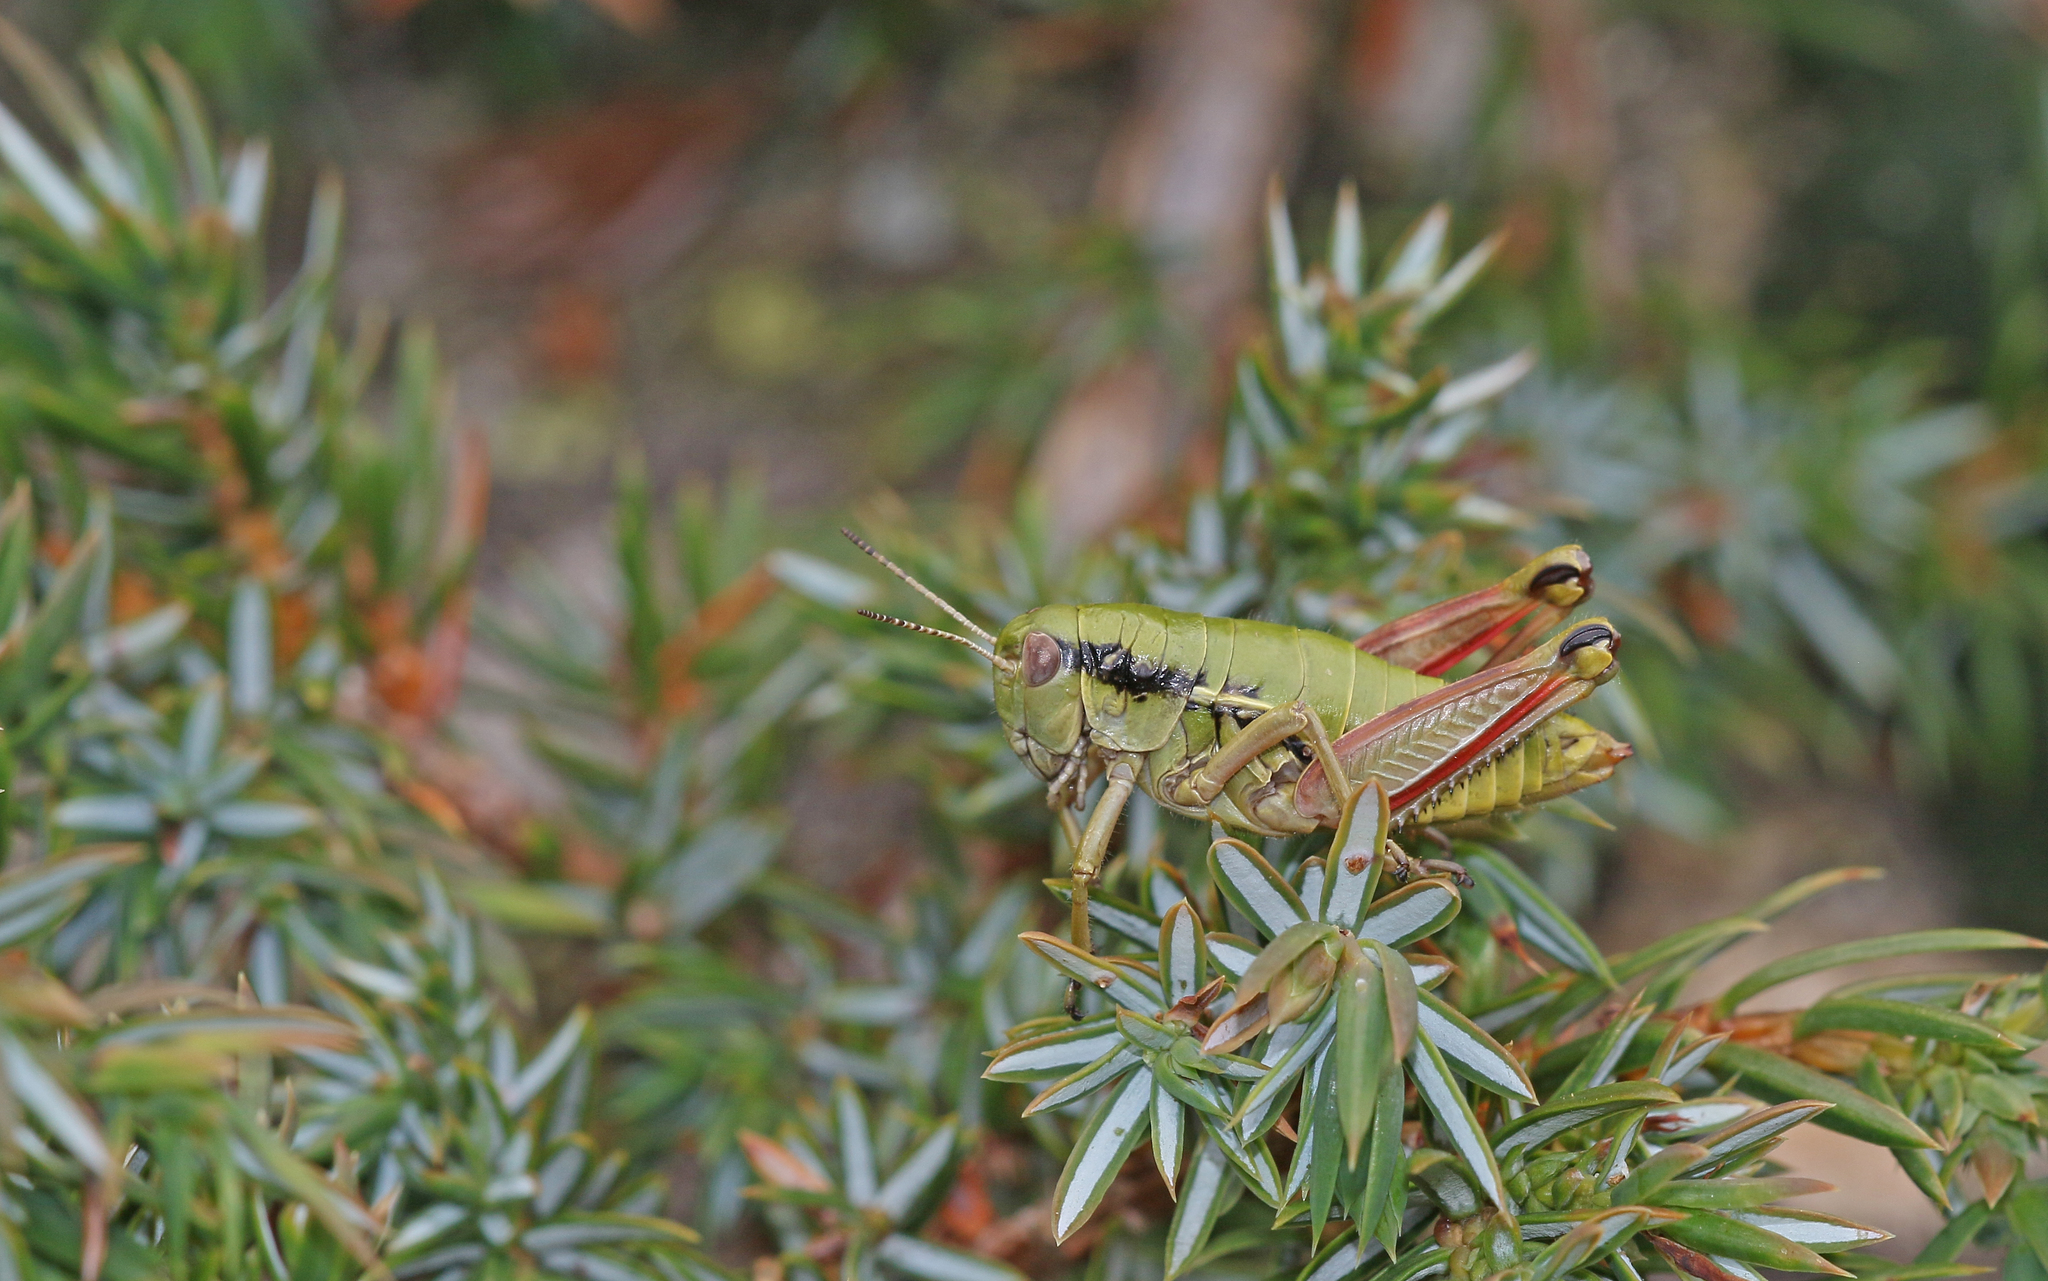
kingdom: Animalia
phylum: Arthropoda
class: Insecta
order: Orthoptera
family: Acrididae
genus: Epipodisma
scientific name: Epipodisma pedemontana
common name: Piedmont mountain grasshopper
